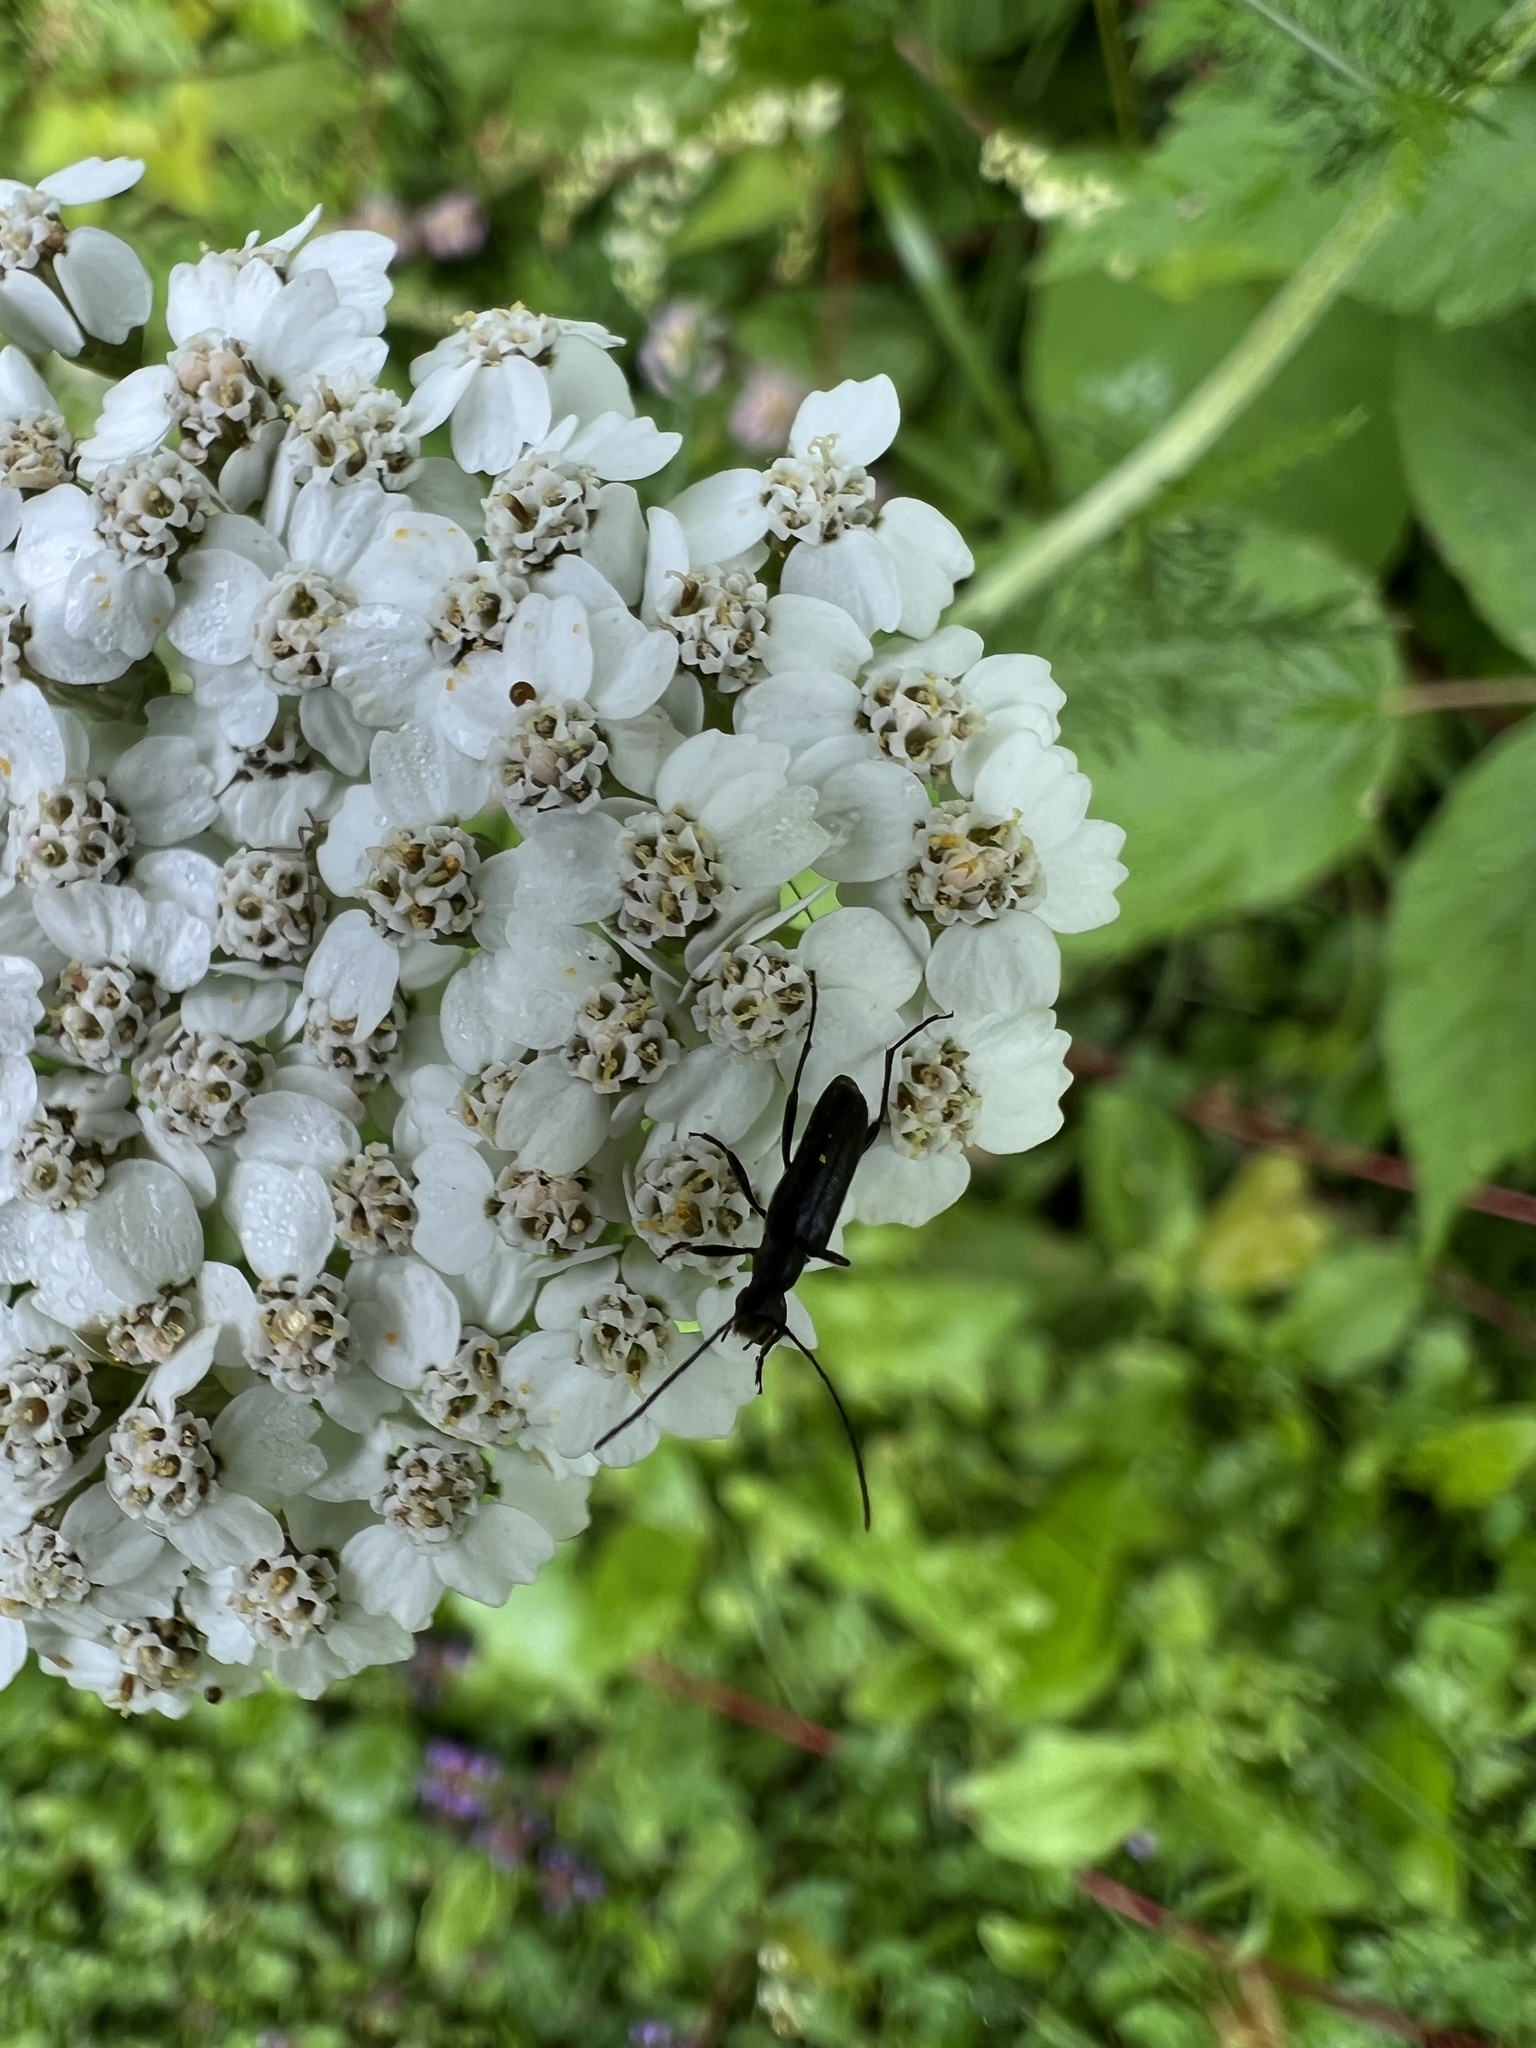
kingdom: Plantae
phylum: Tracheophyta
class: Magnoliopsida
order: Asterales
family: Asteraceae
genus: Achillea
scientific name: Achillea millefolium
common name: Yarrow
